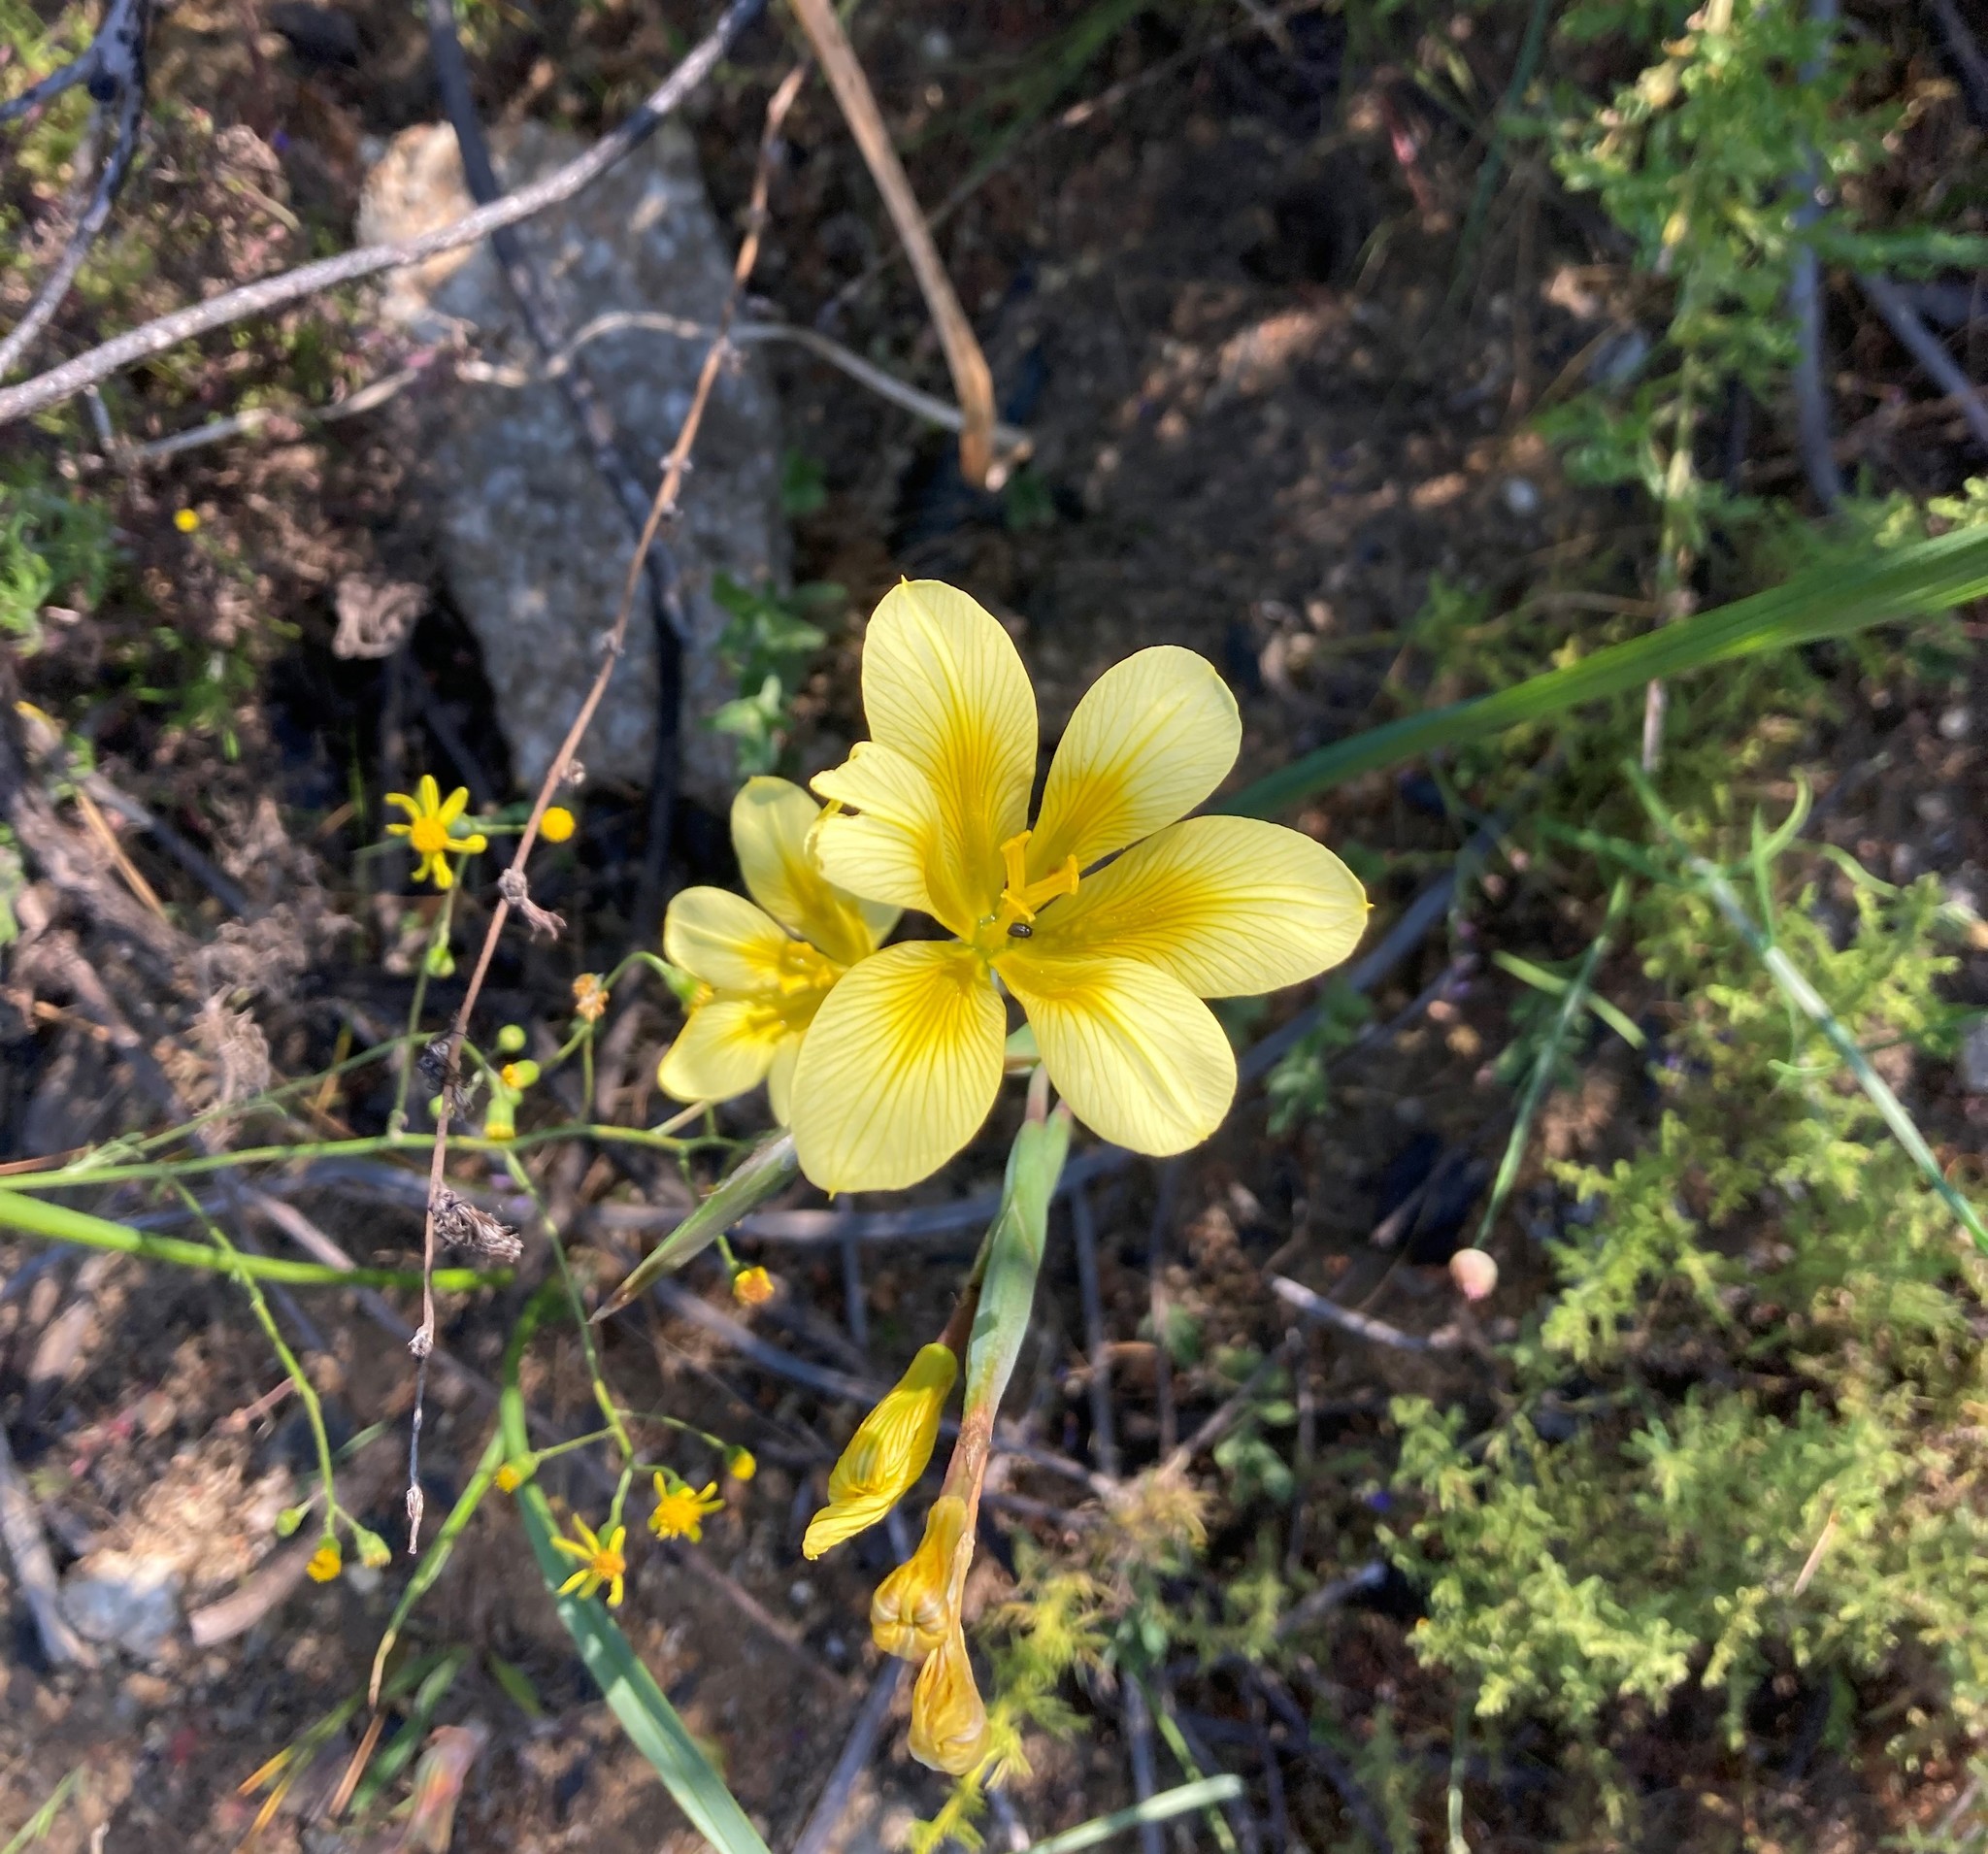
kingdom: Plantae
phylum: Tracheophyta
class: Liliopsida
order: Asparagales
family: Iridaceae
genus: Moraea
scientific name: Moraea ochroleuca
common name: Red tulp
